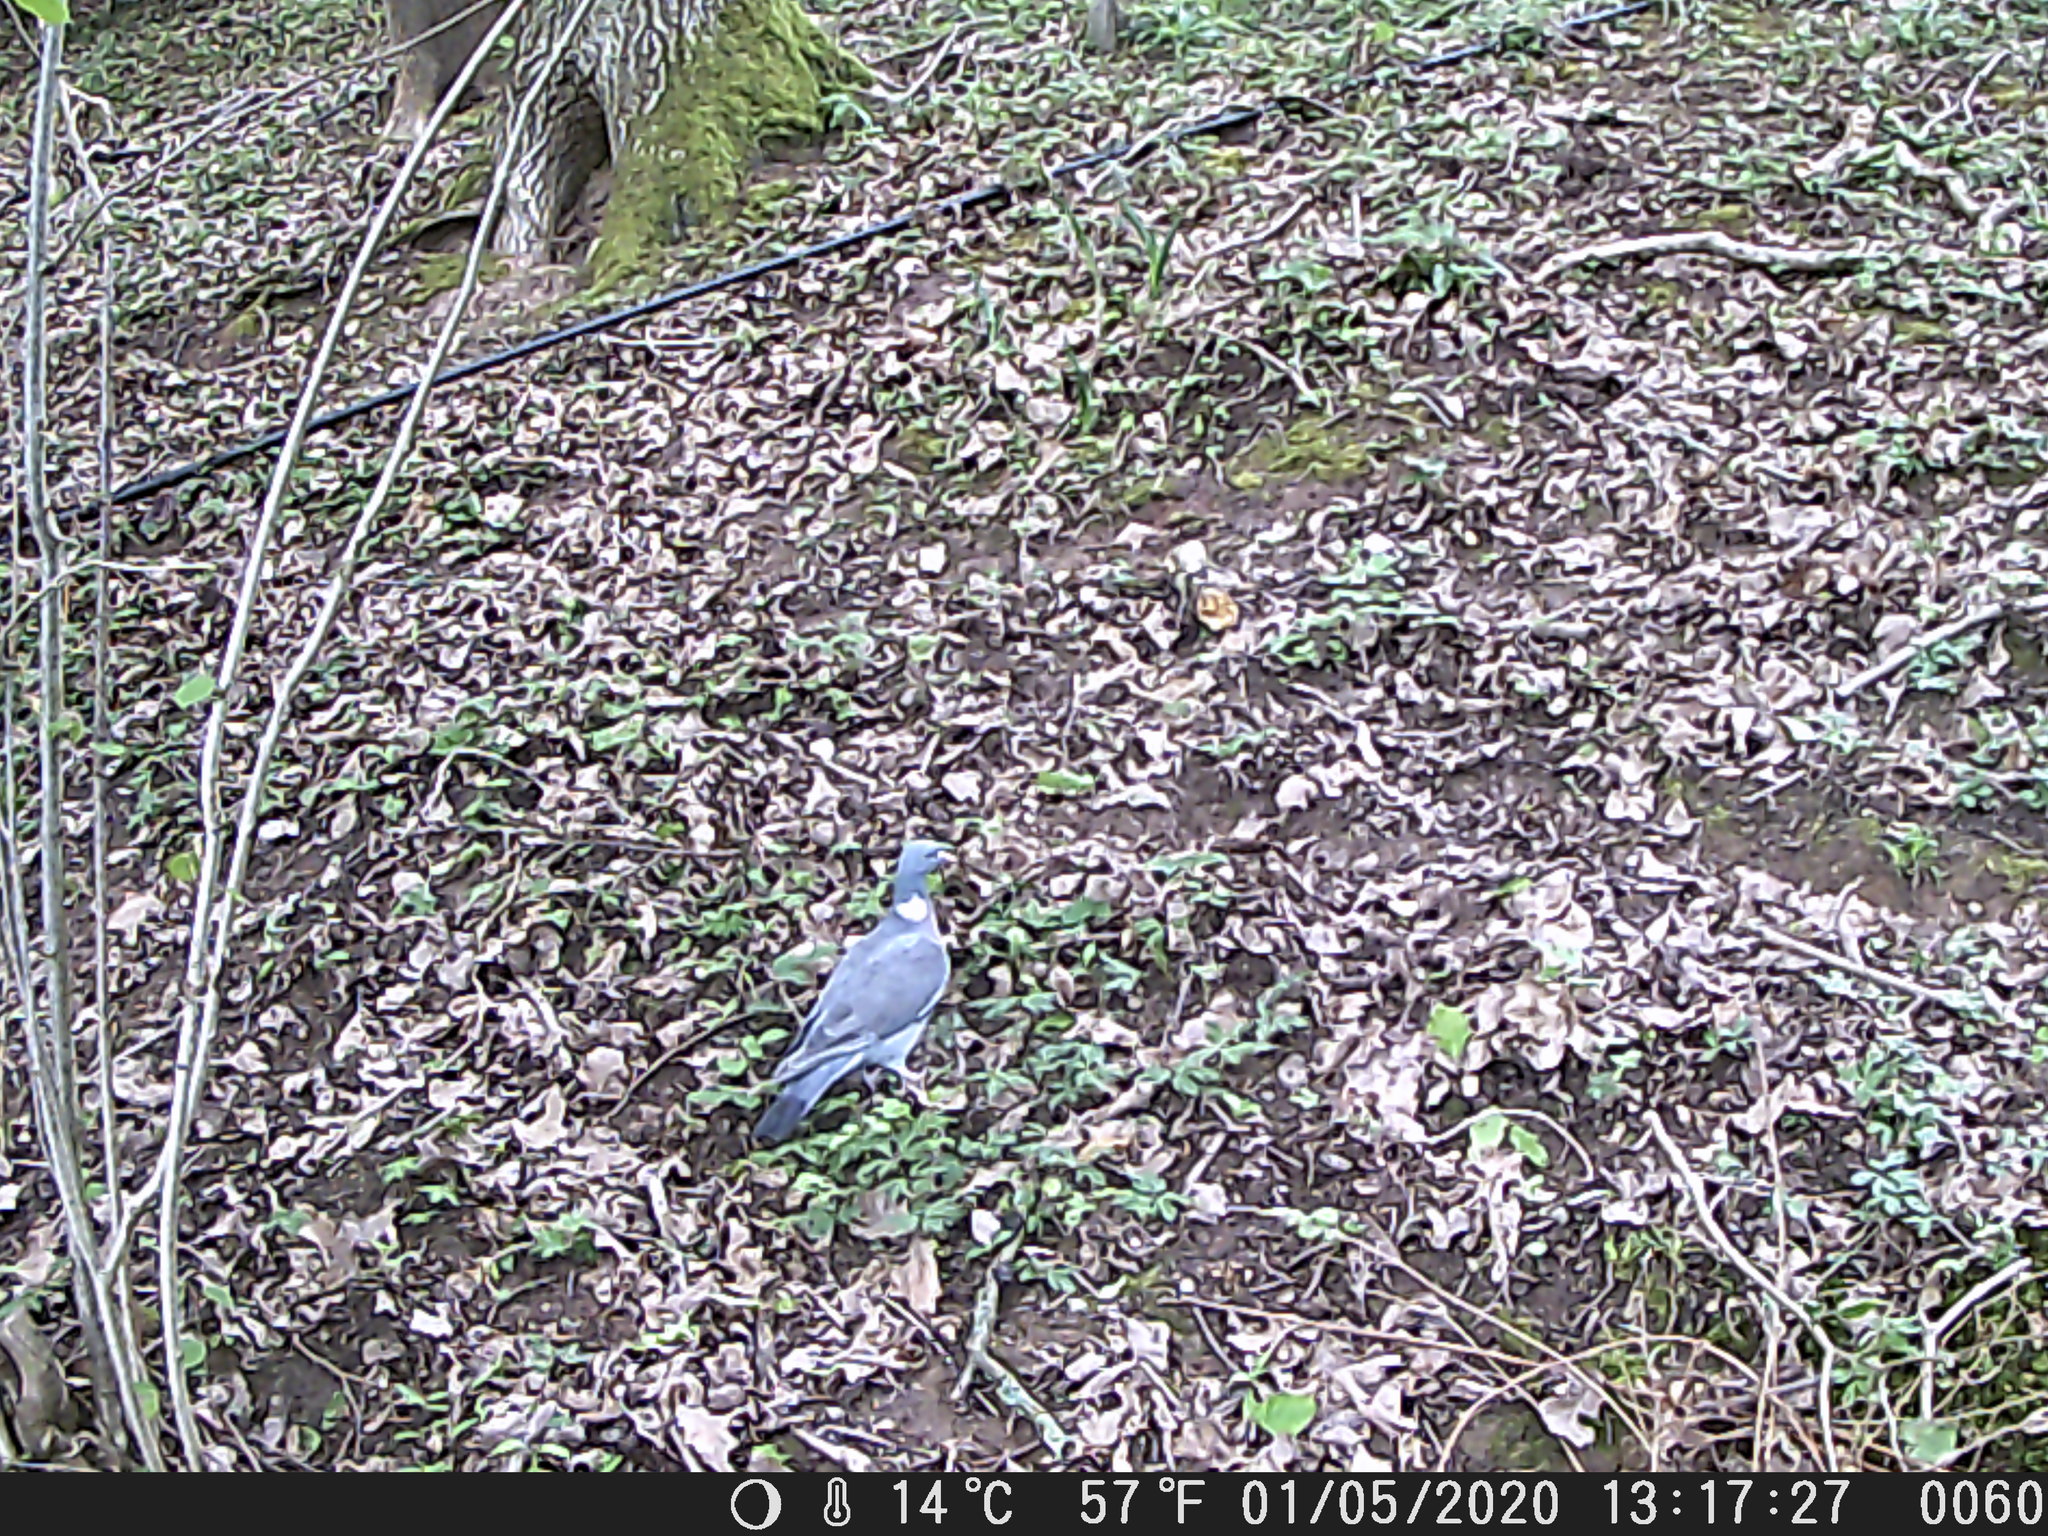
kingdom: Animalia
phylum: Chordata
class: Aves
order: Columbiformes
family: Columbidae
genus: Columba
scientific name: Columba palumbus
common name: Common wood pigeon
